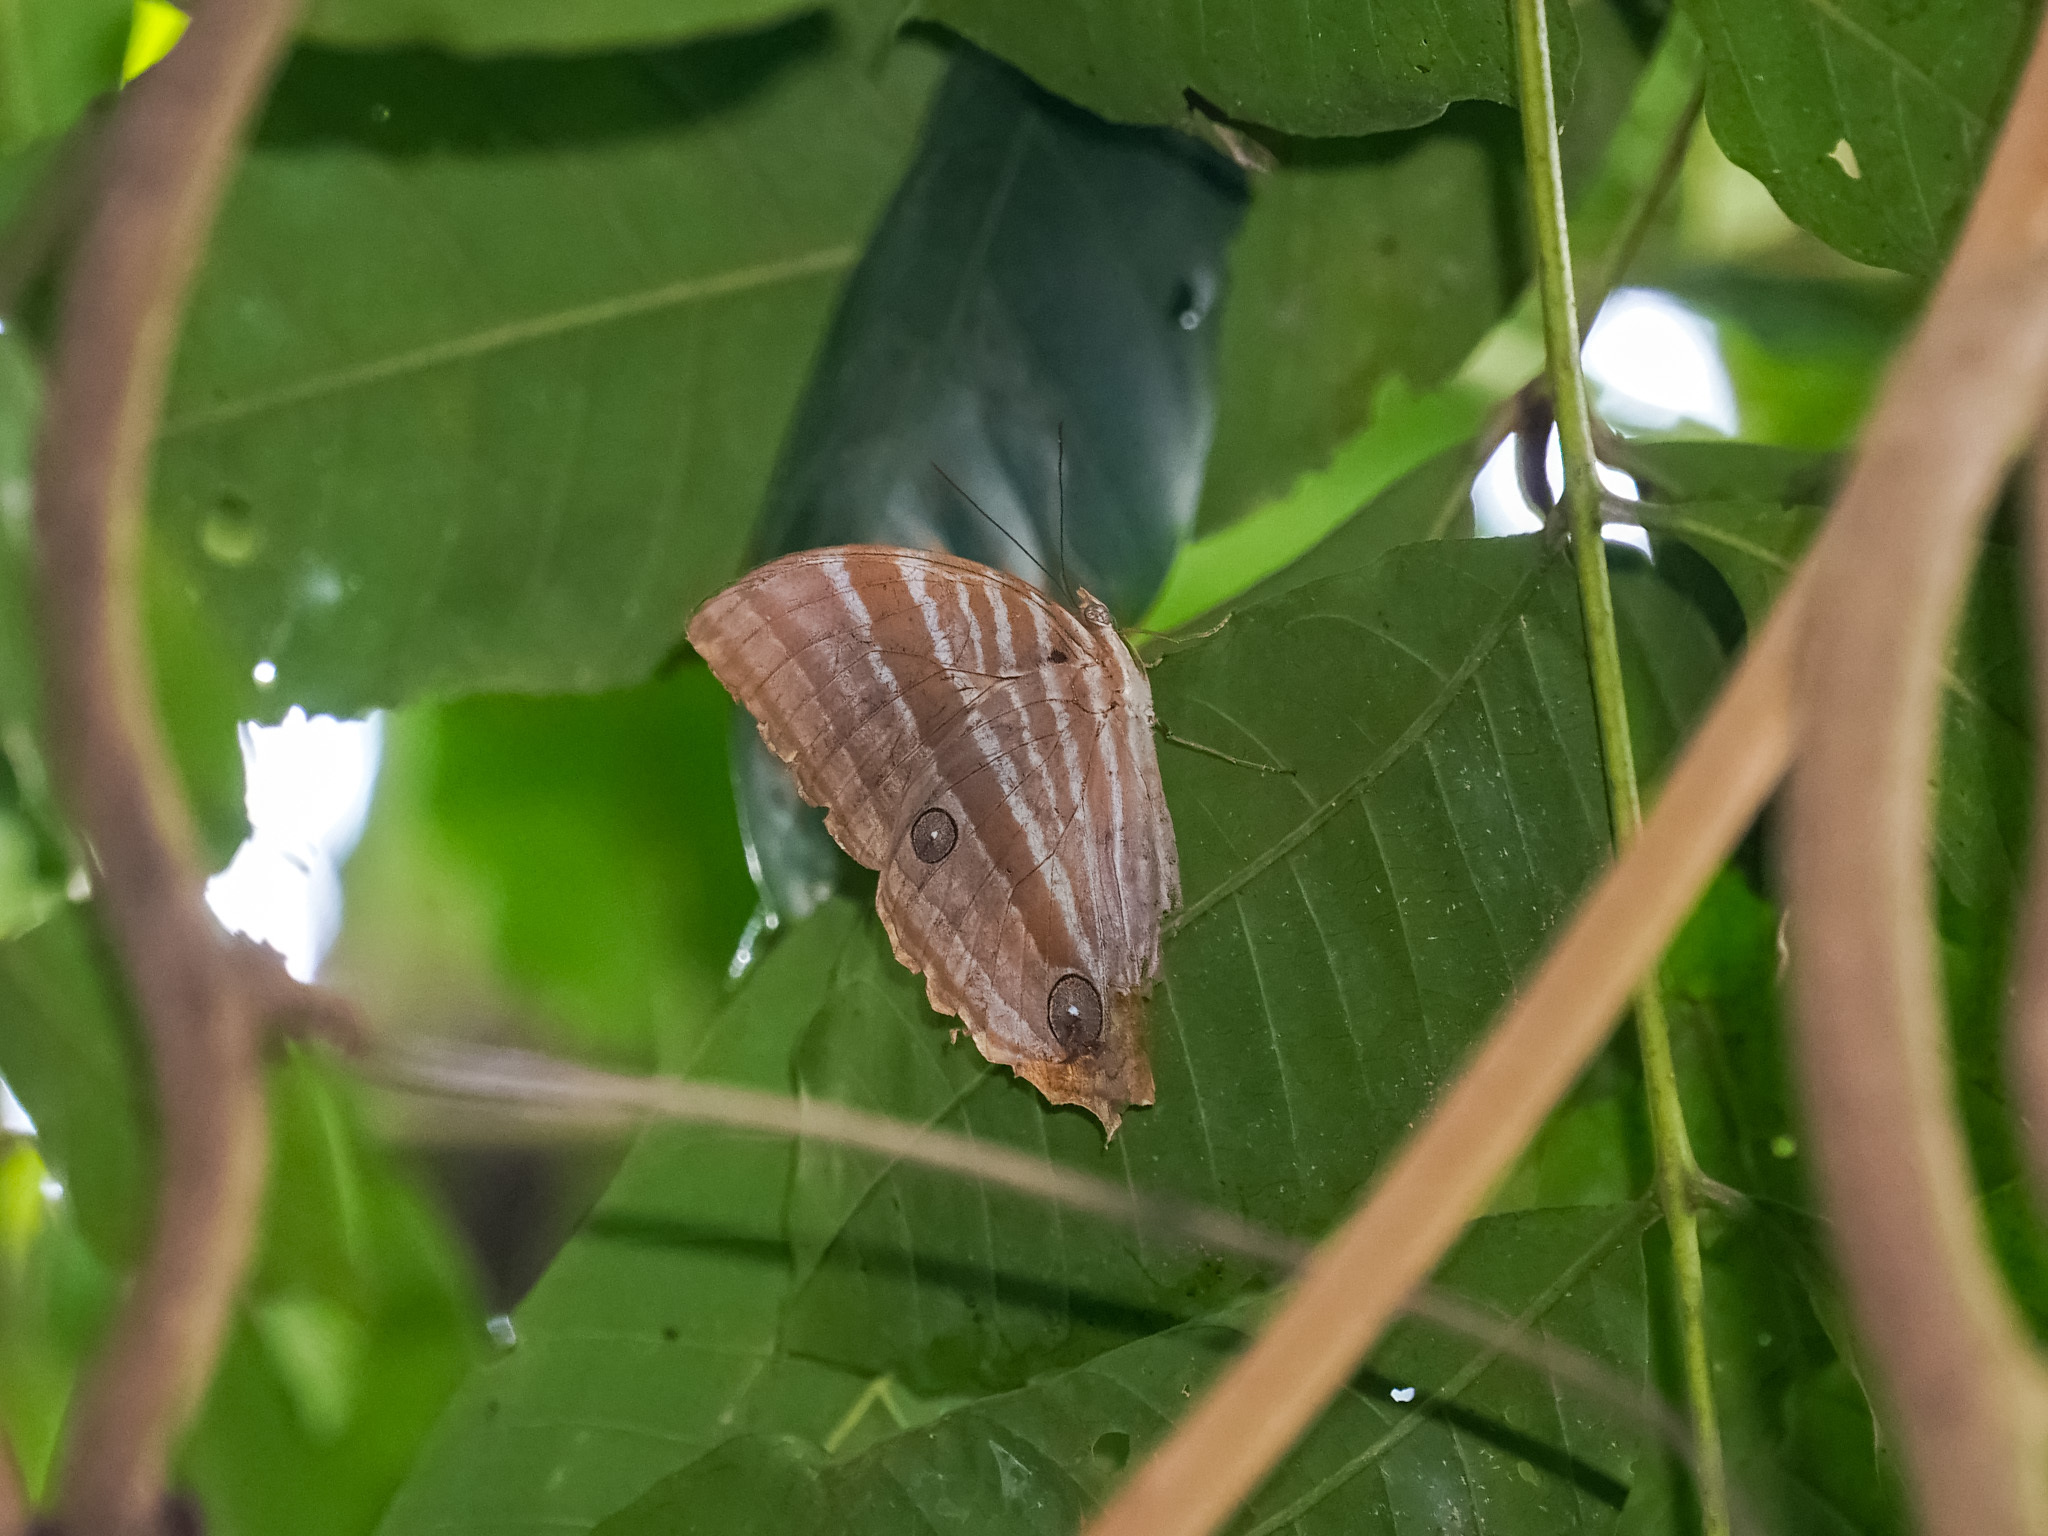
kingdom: Animalia
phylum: Arthropoda
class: Insecta
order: Lepidoptera
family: Nymphalidae
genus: Amathusia
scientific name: Amathusia phidippus
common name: Palm king
